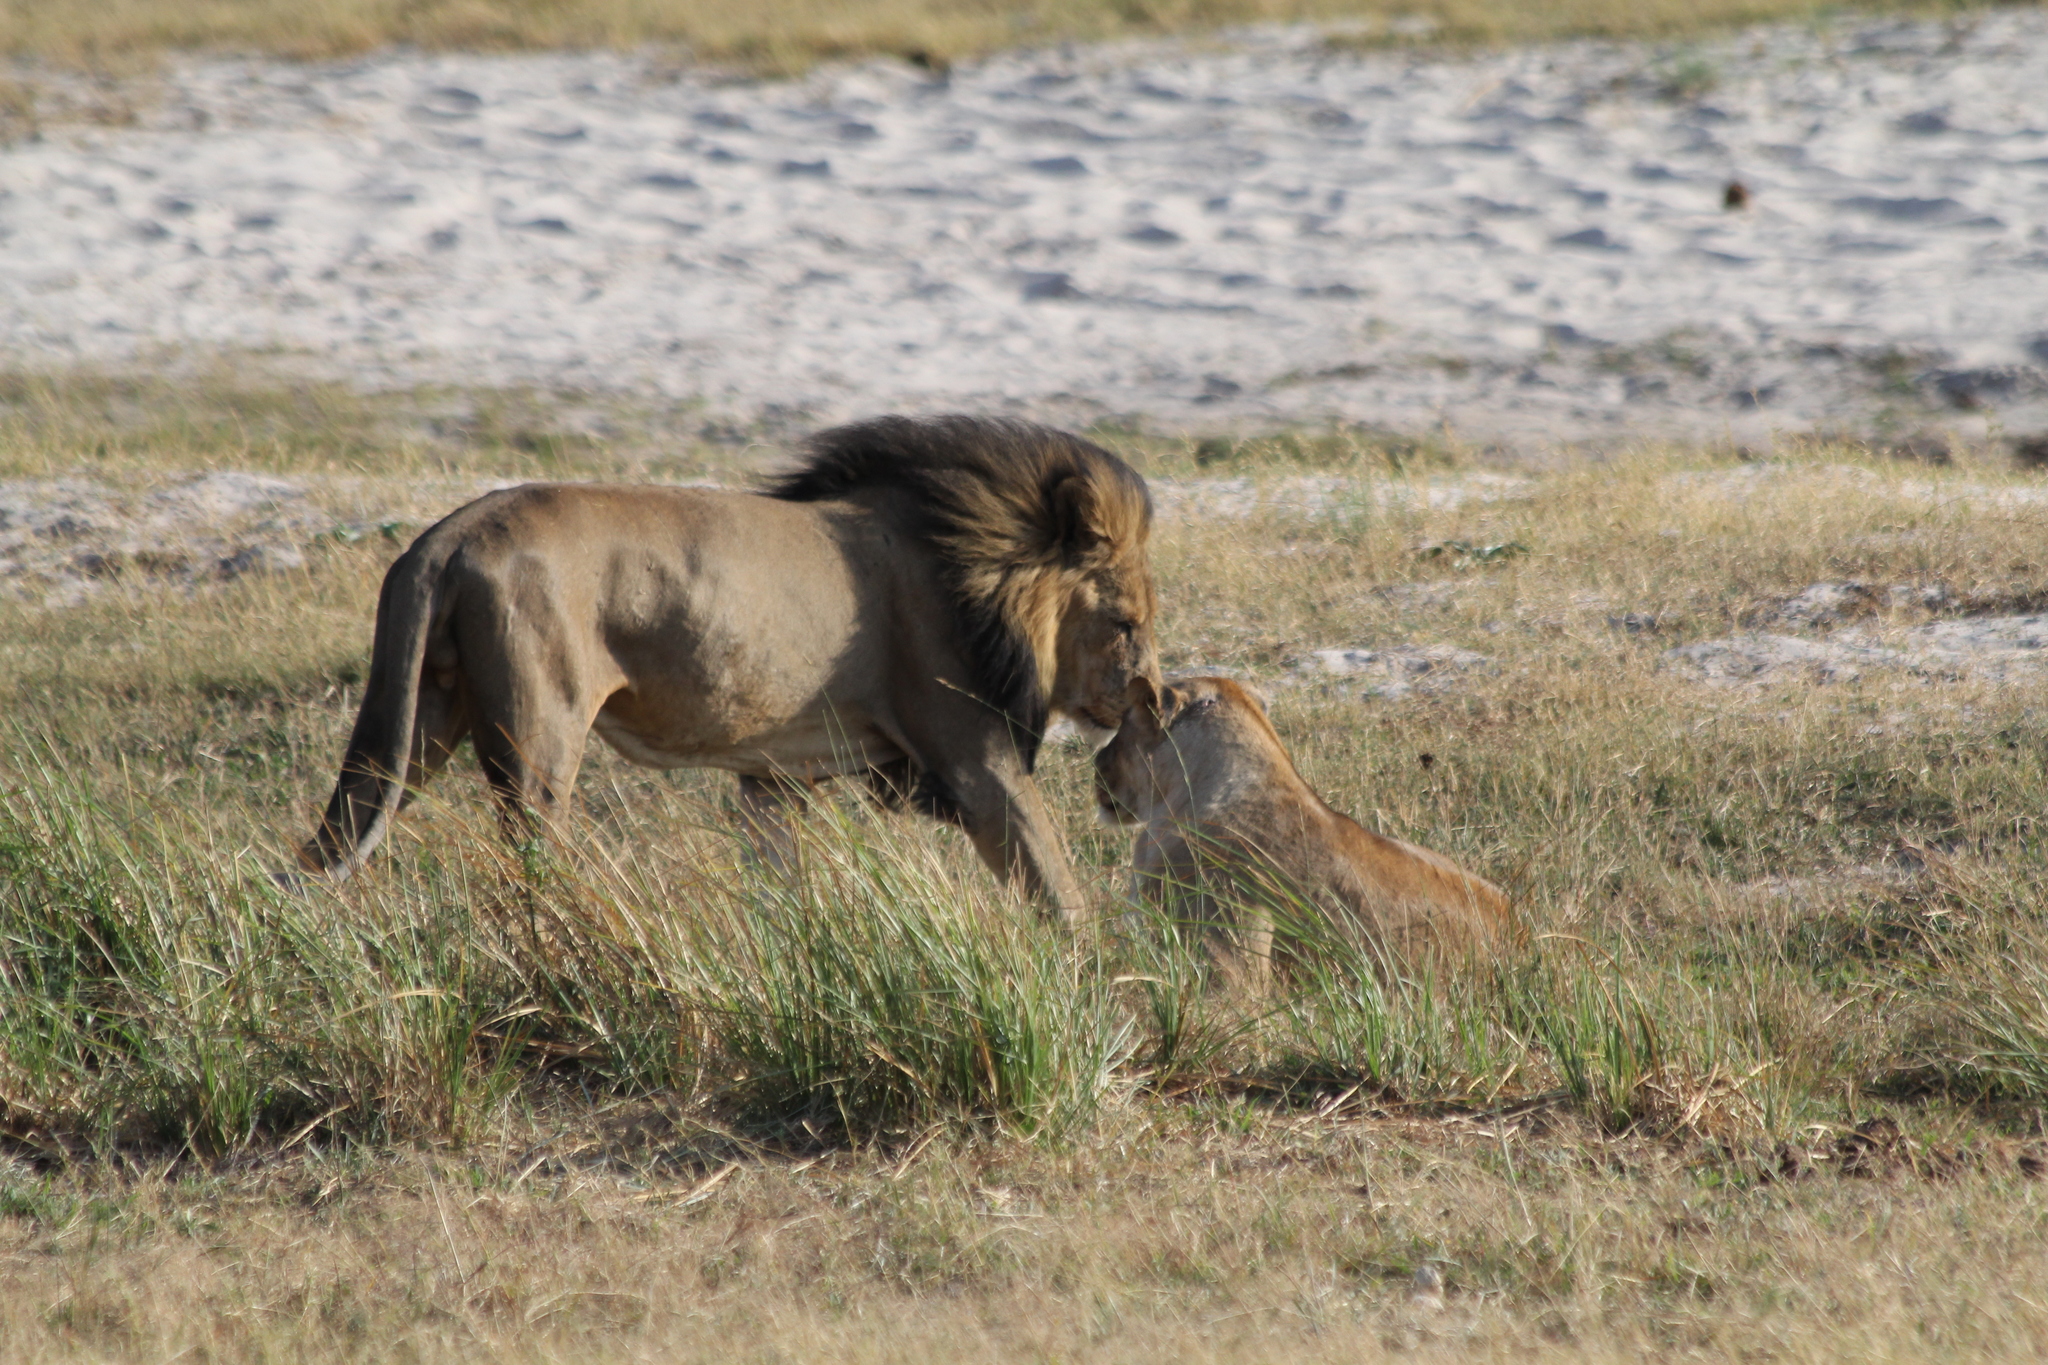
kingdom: Animalia
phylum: Chordata
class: Mammalia
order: Carnivora
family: Felidae
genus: Panthera
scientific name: Panthera leo
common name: Lion
